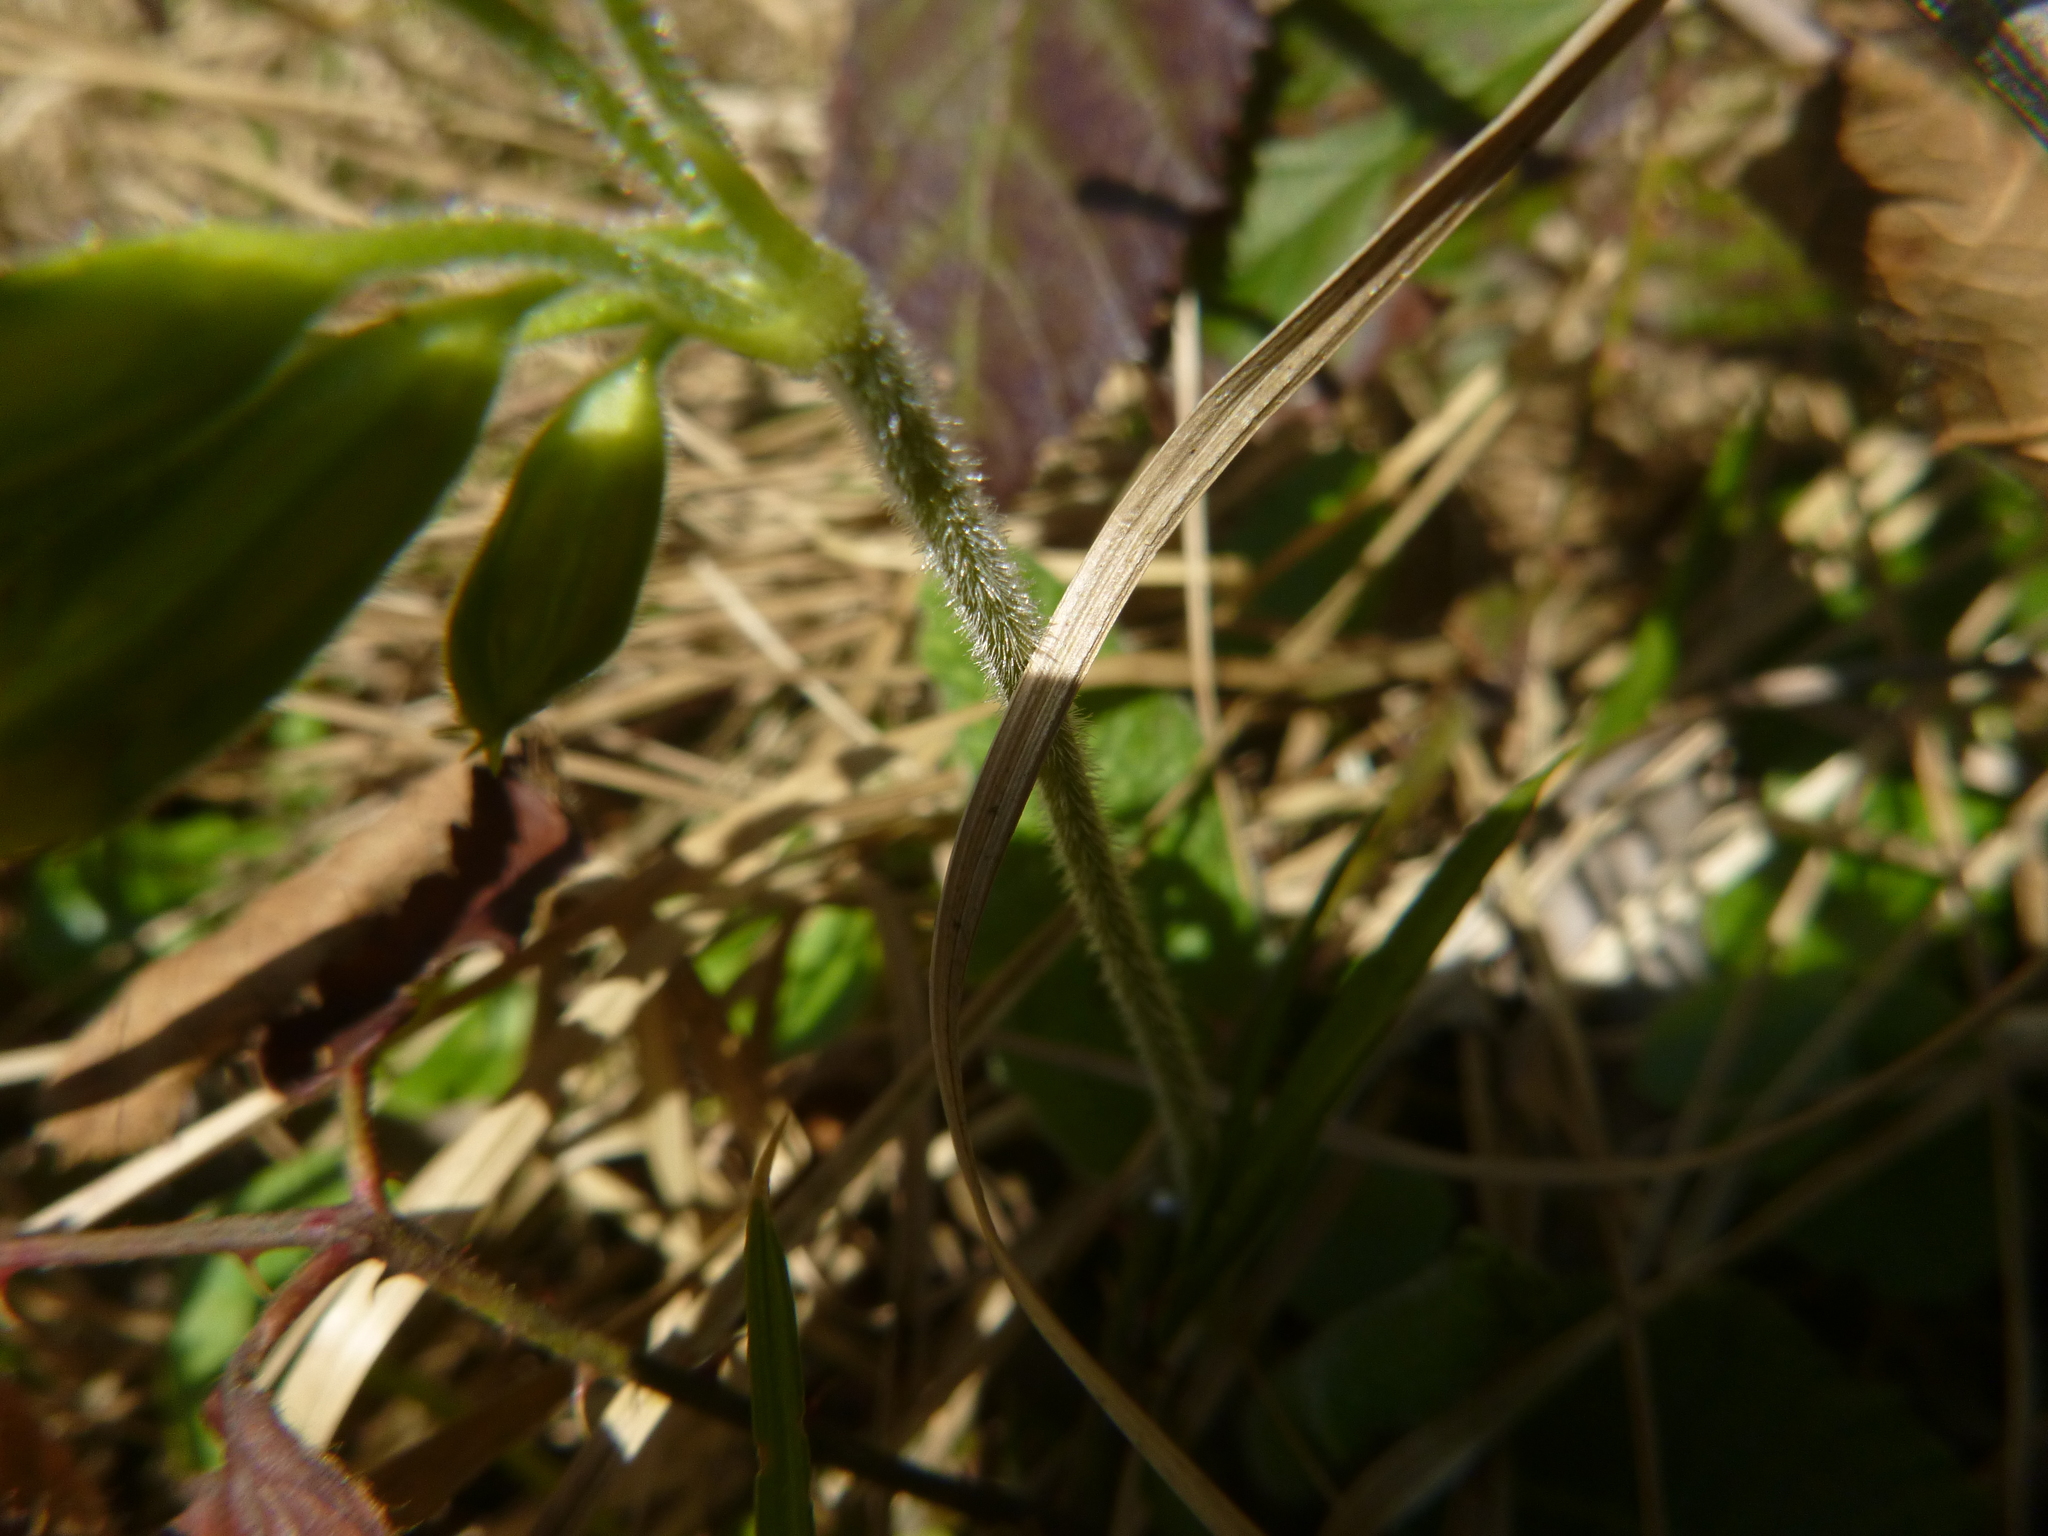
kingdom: Plantae
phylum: Tracheophyta
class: Magnoliopsida
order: Ericales
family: Primulaceae
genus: Primula
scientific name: Primula elatior
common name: Oxlip
